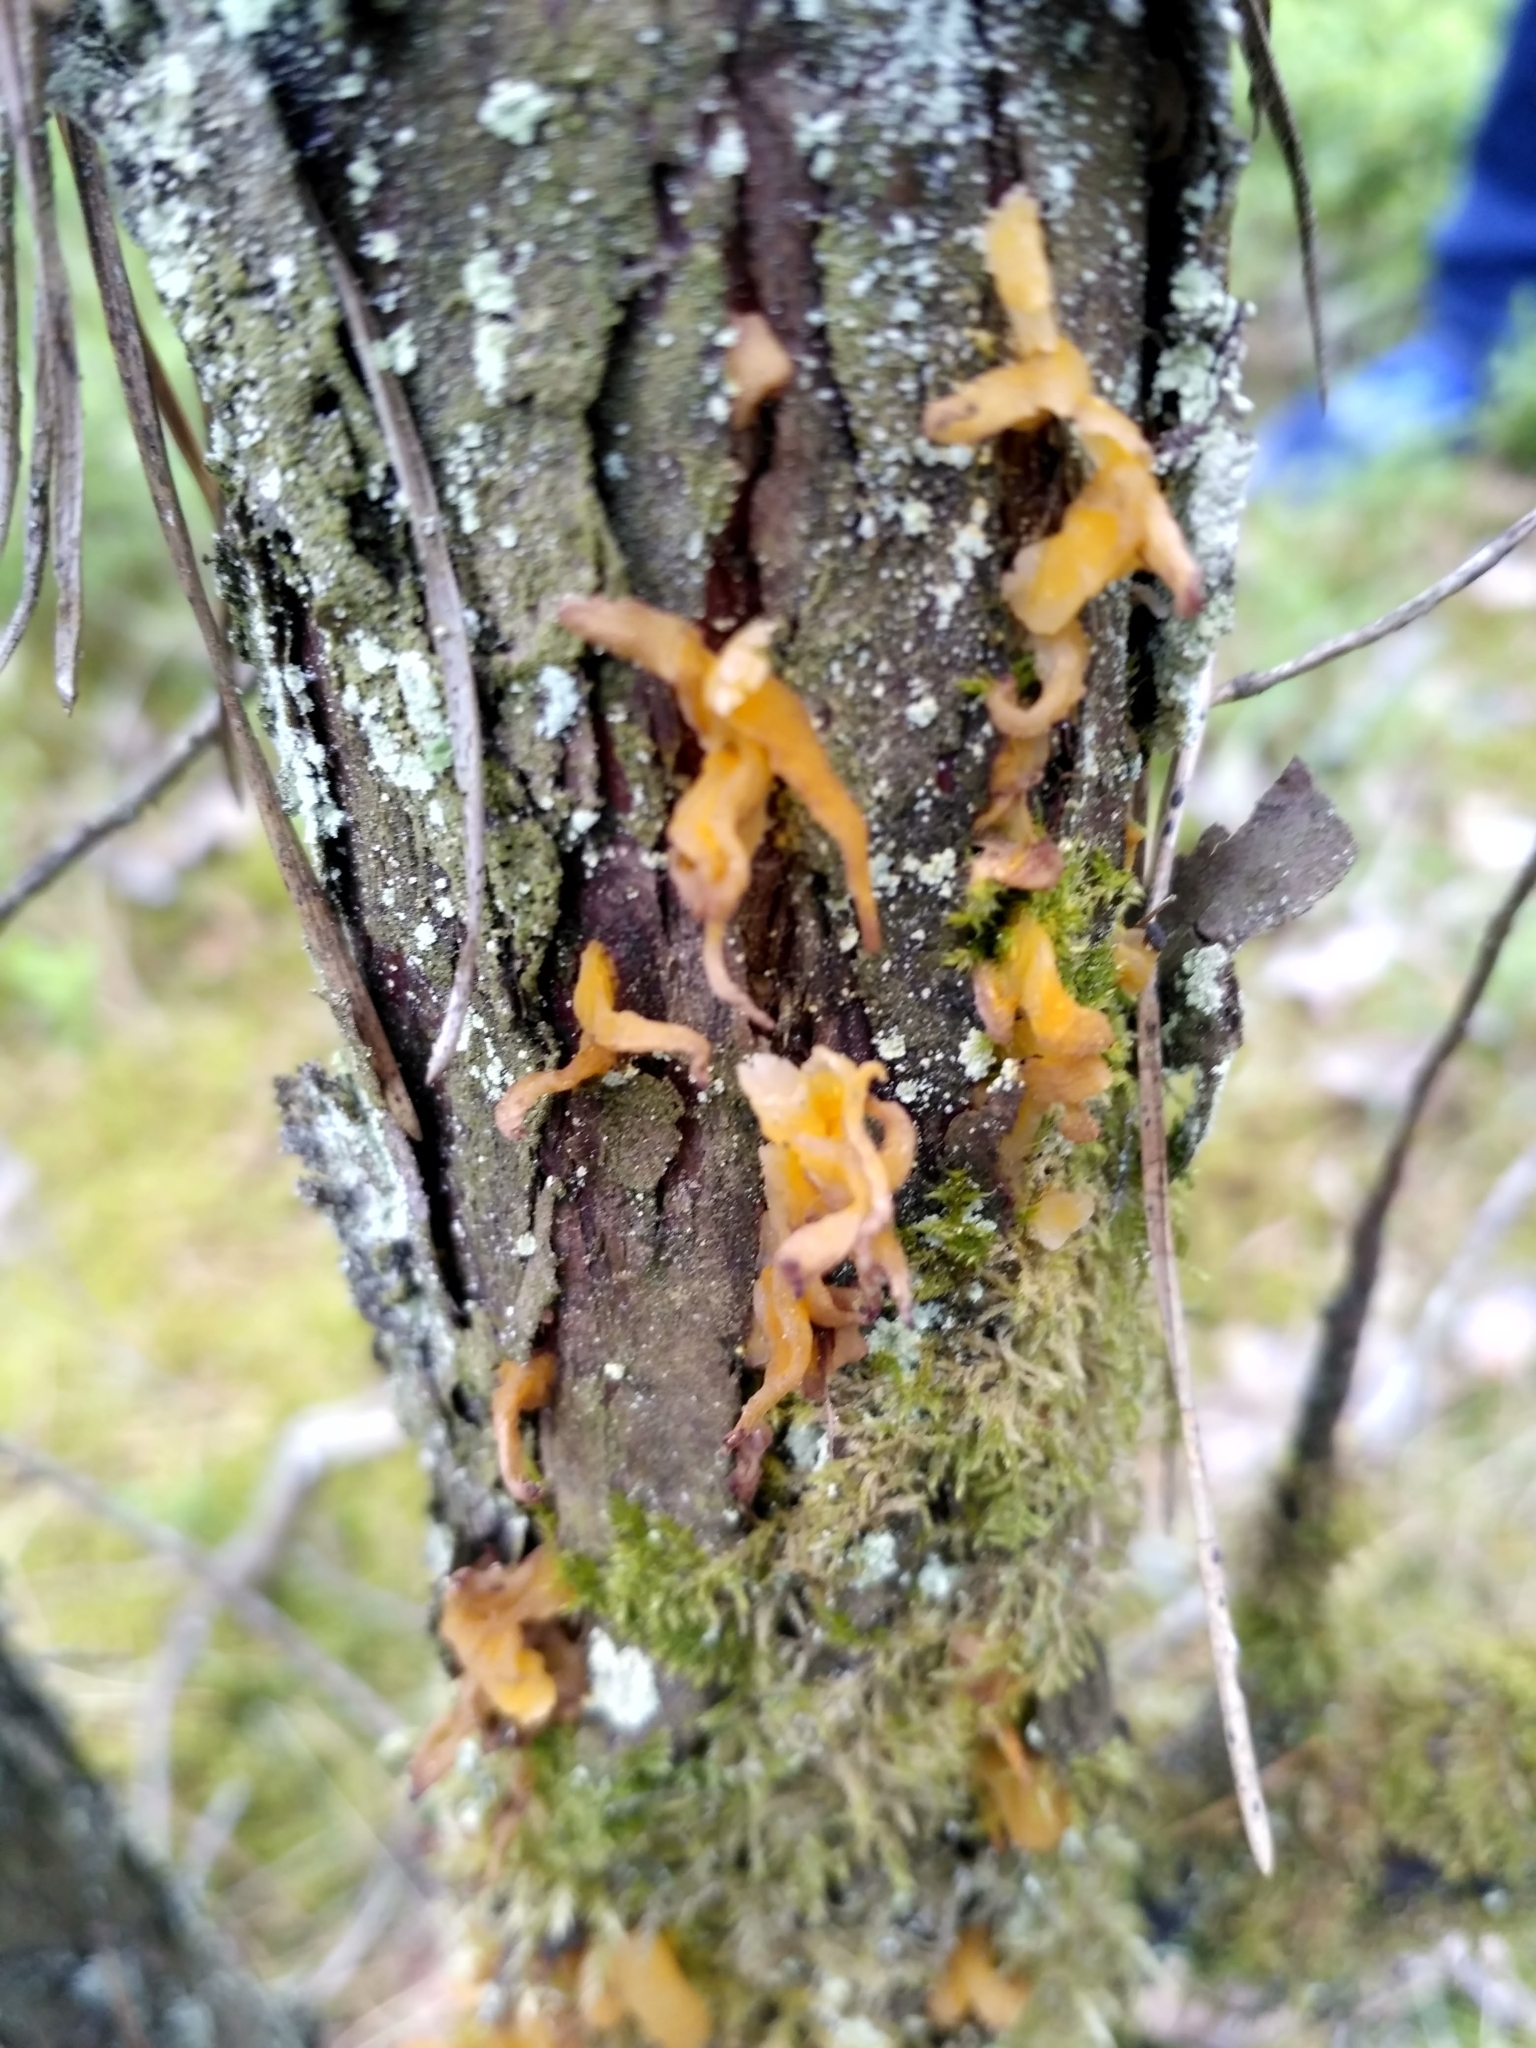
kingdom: Fungi
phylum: Basidiomycota
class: Pucciniomycetes
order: Pucciniales
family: Gymnosporangiaceae
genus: Gymnosporangium
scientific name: Gymnosporangium clavariiforme
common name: Tongues of fire
